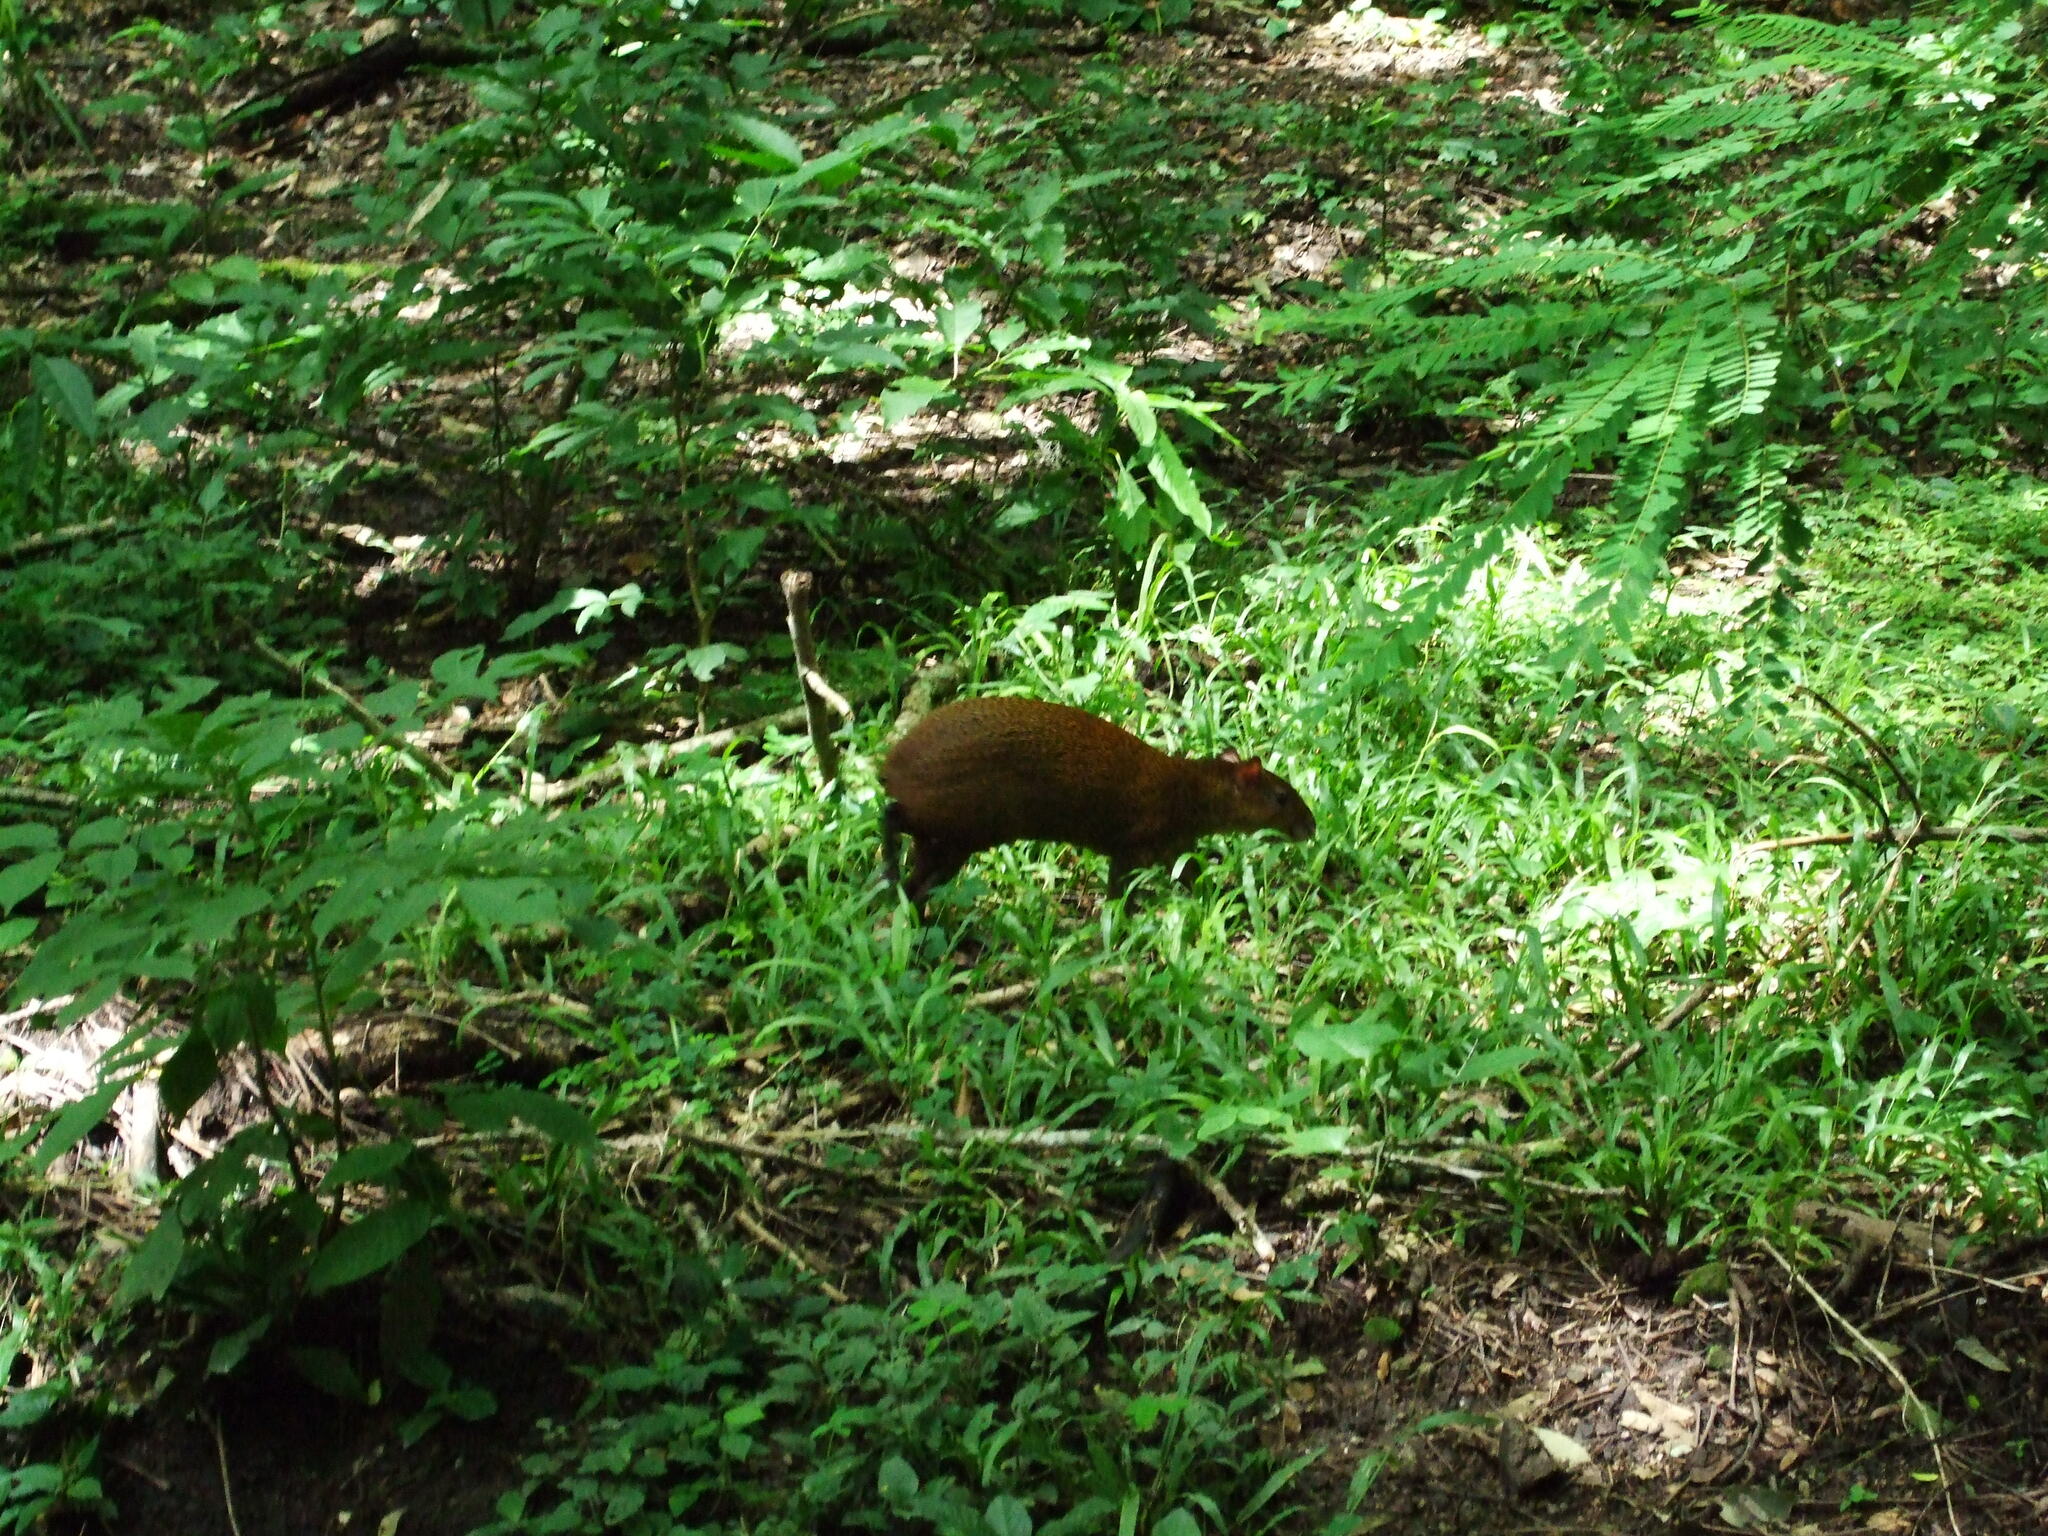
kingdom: Animalia
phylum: Chordata
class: Mammalia
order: Rodentia
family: Dasyproctidae
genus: Dasyprocta
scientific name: Dasyprocta punctata
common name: Central american agouti
